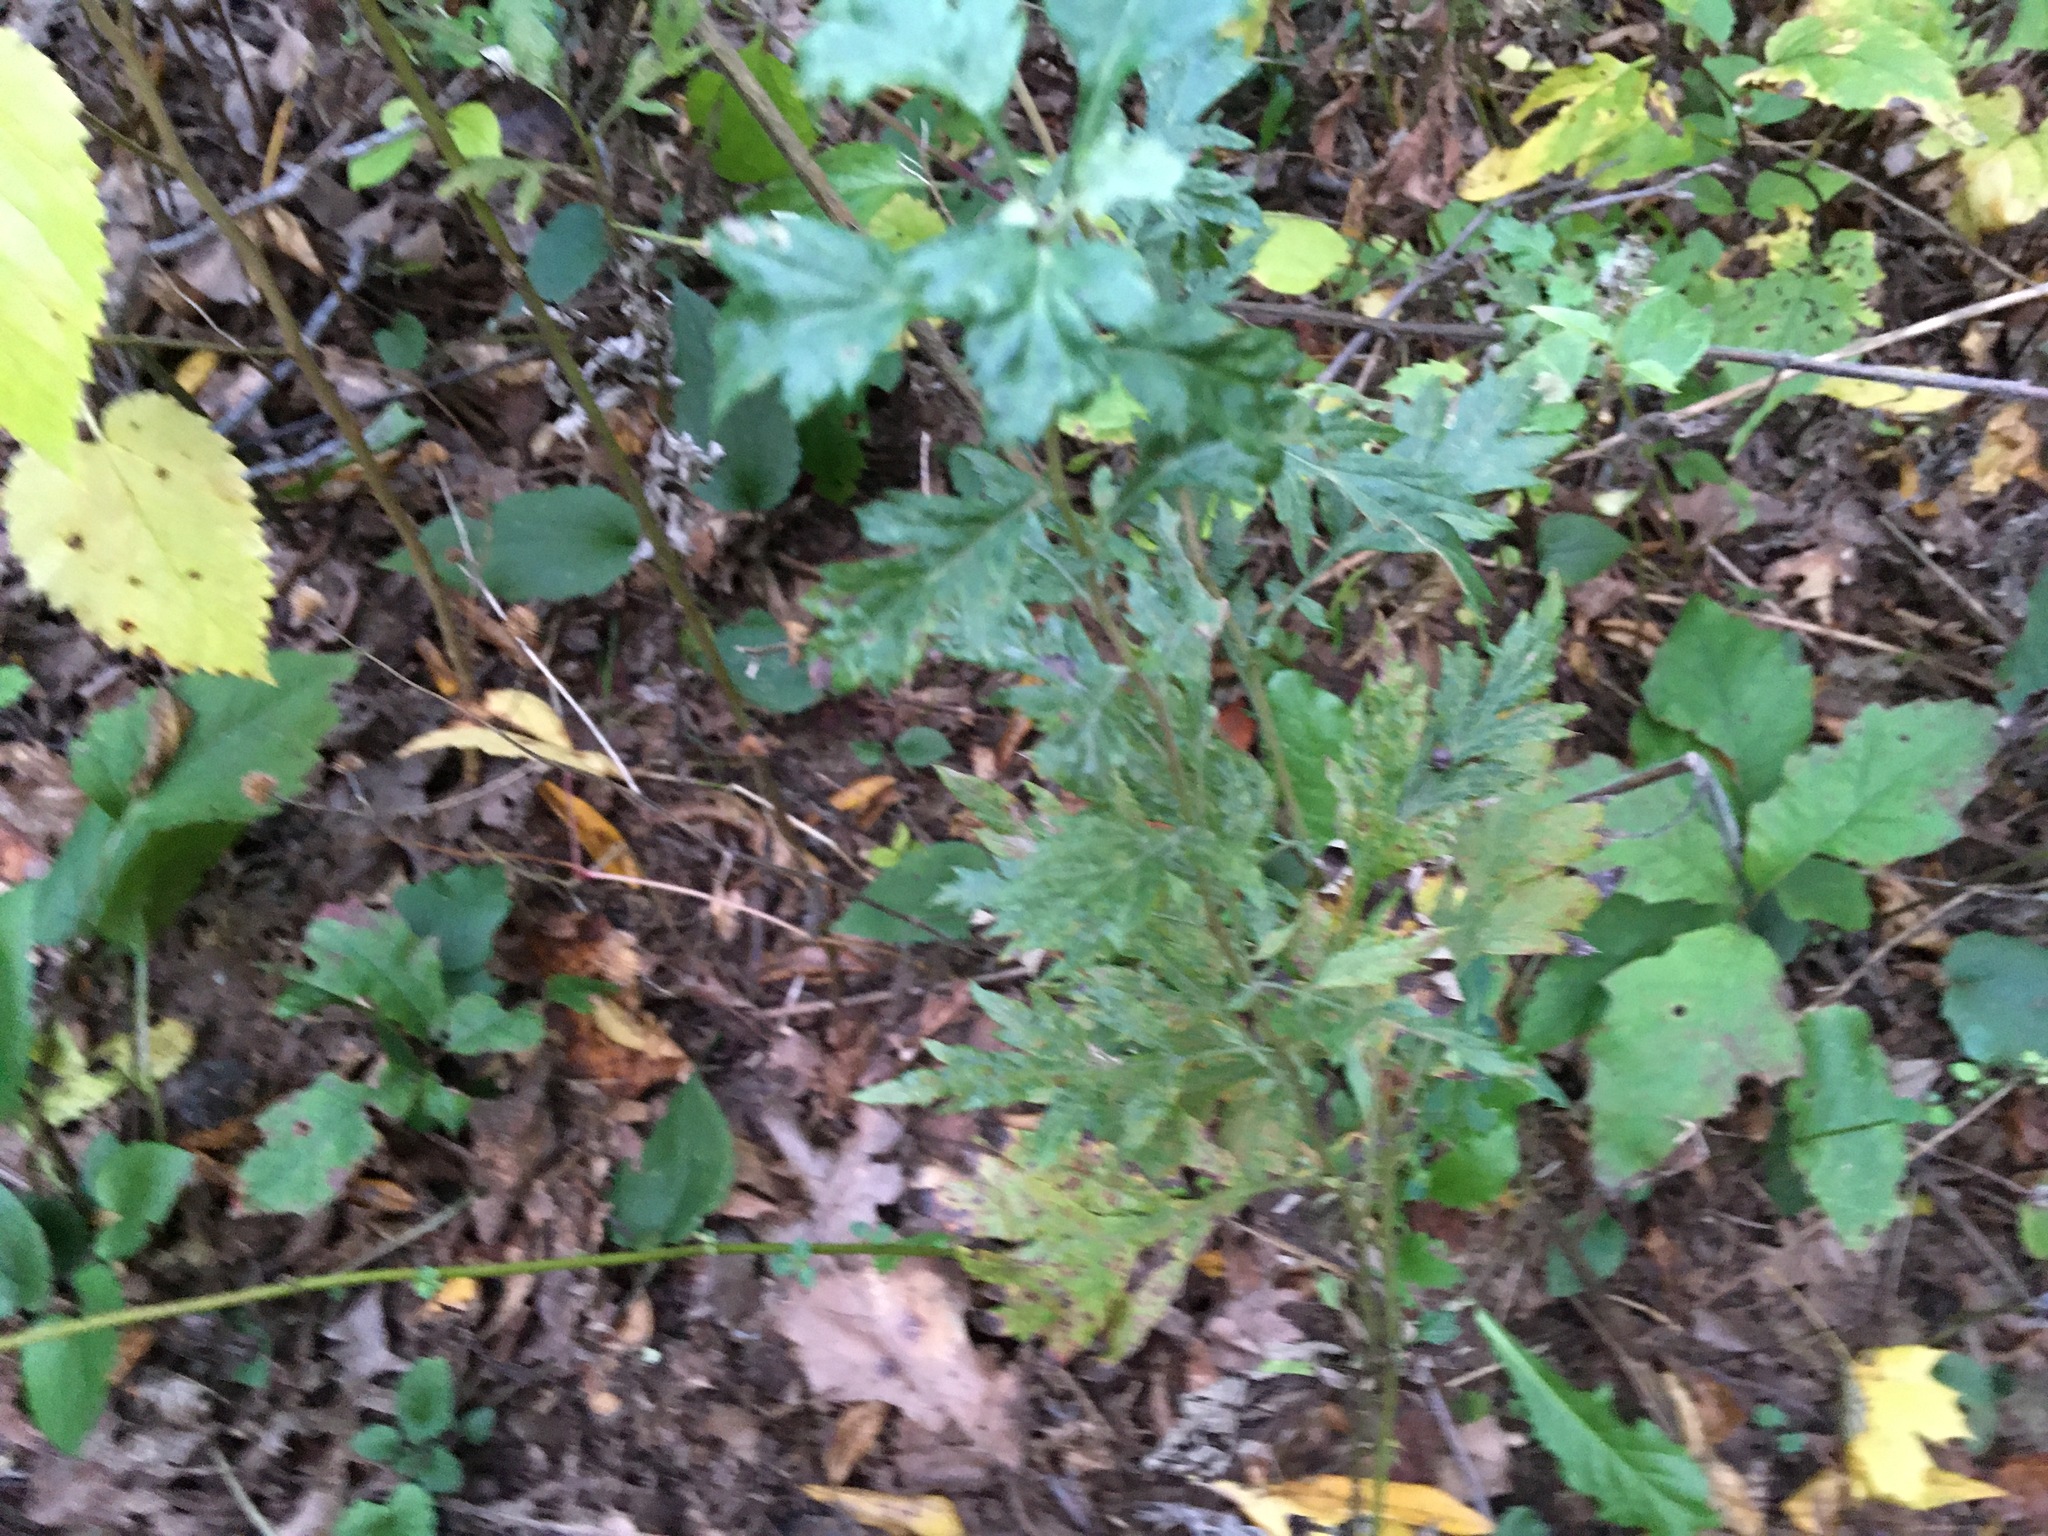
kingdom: Plantae
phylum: Tracheophyta
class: Magnoliopsida
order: Asterales
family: Asteraceae
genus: Artemisia
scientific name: Artemisia vulgaris
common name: Mugwort
